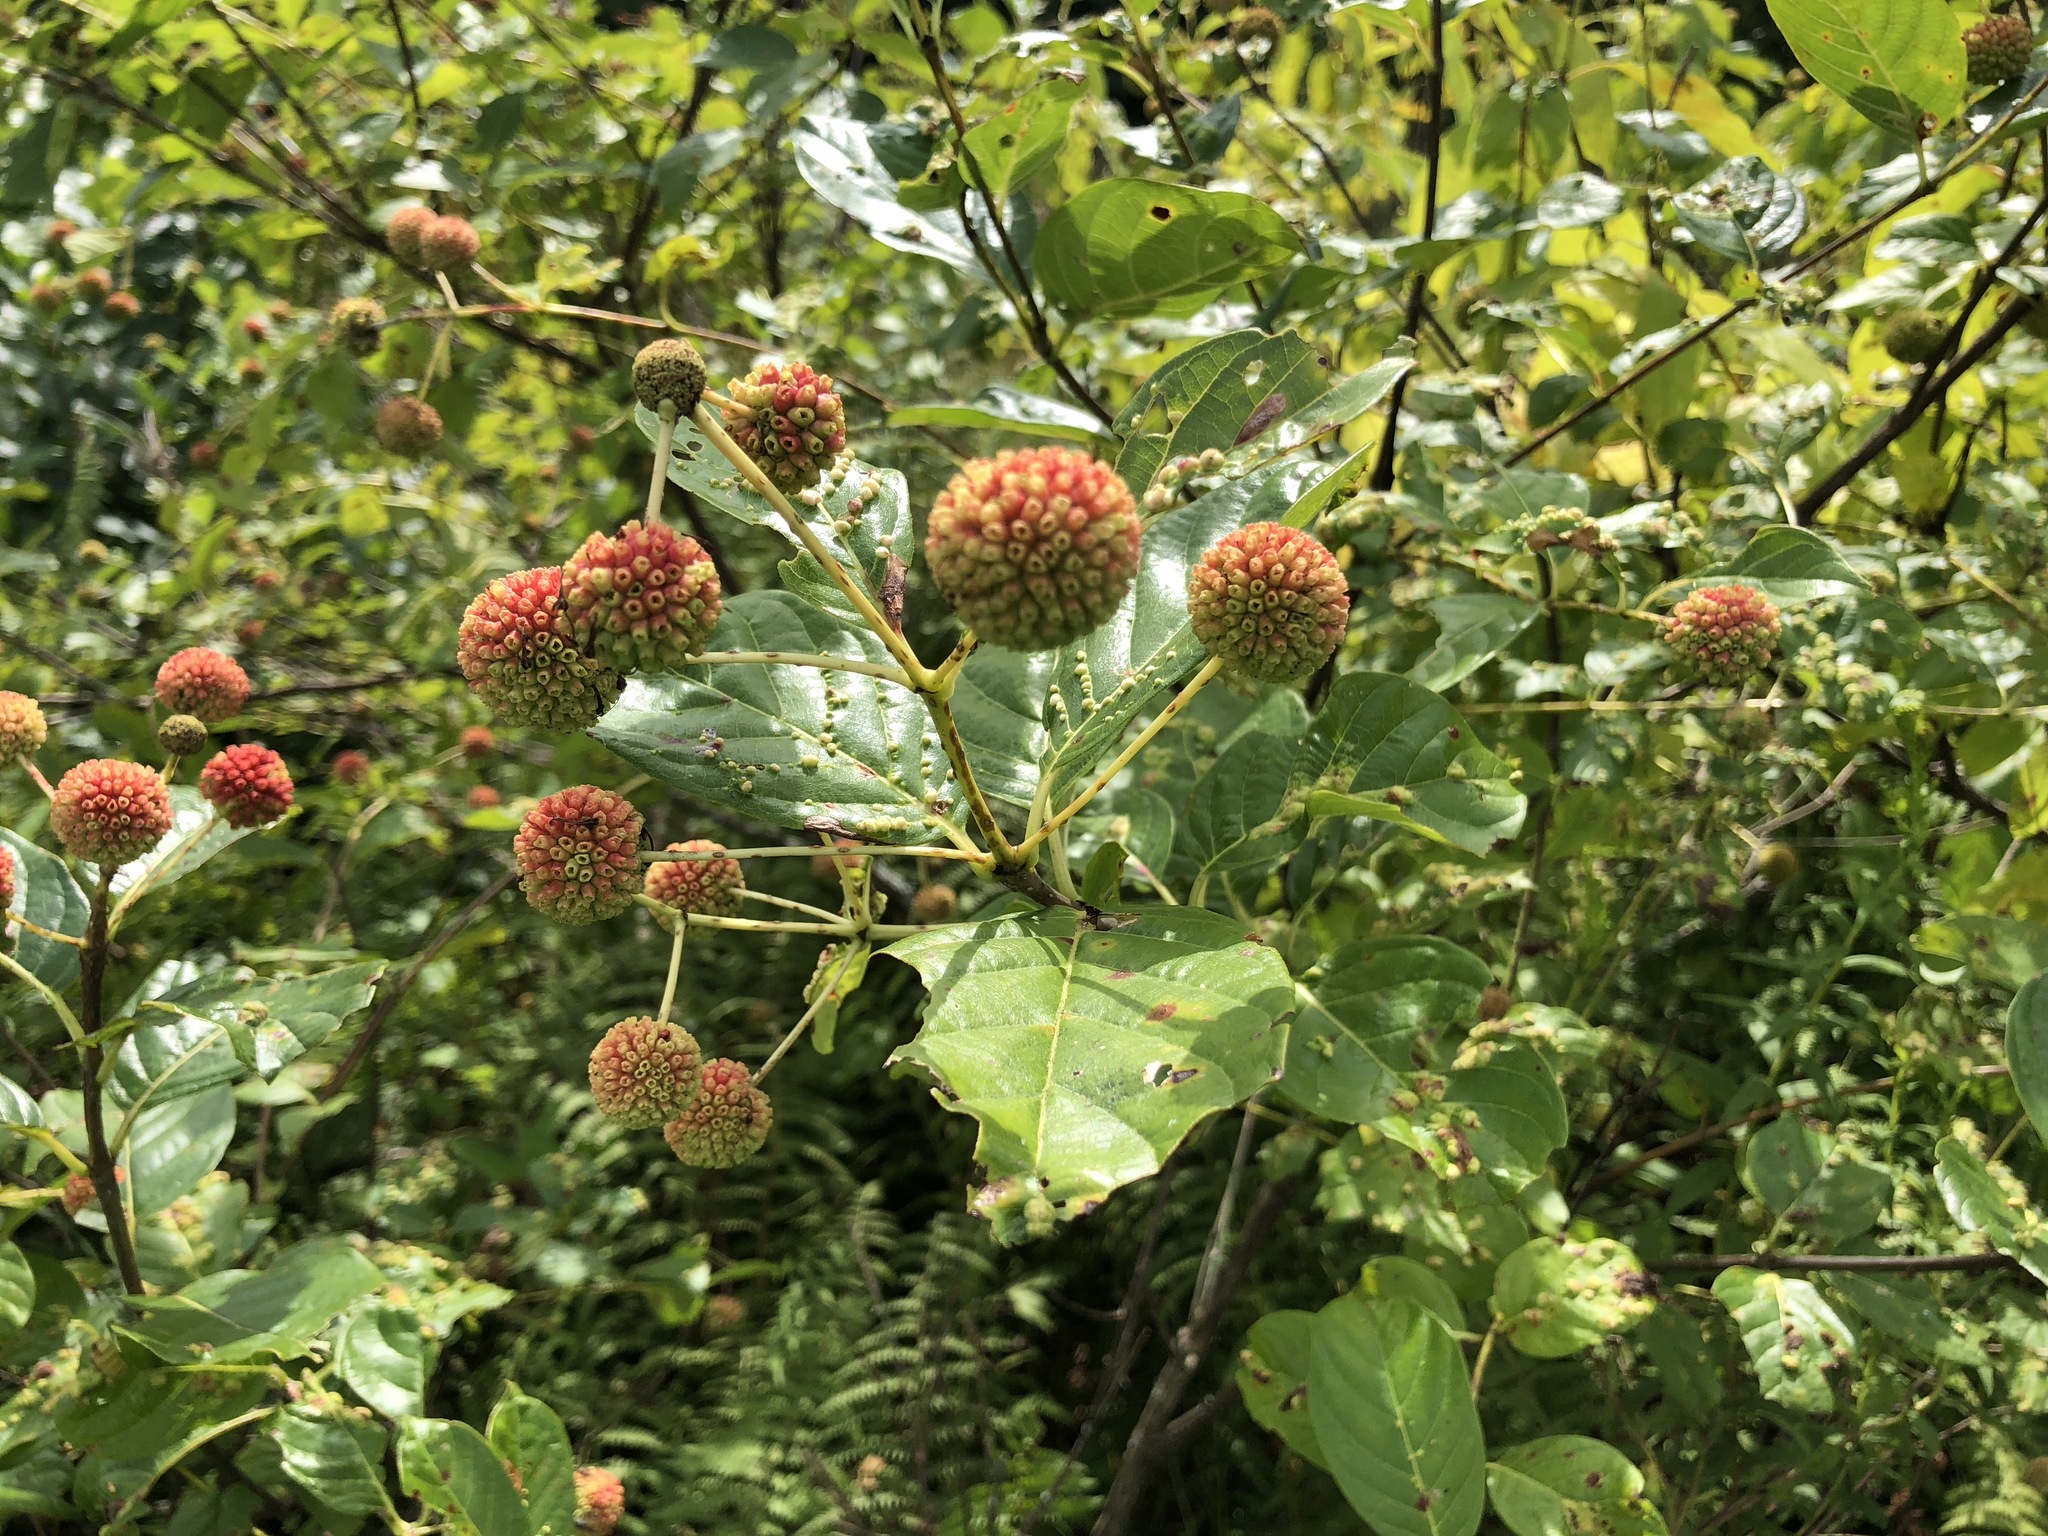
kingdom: Plantae
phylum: Tracheophyta
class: Magnoliopsida
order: Gentianales
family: Rubiaceae
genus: Cephalanthus
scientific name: Cephalanthus occidentalis
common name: Button-willow
